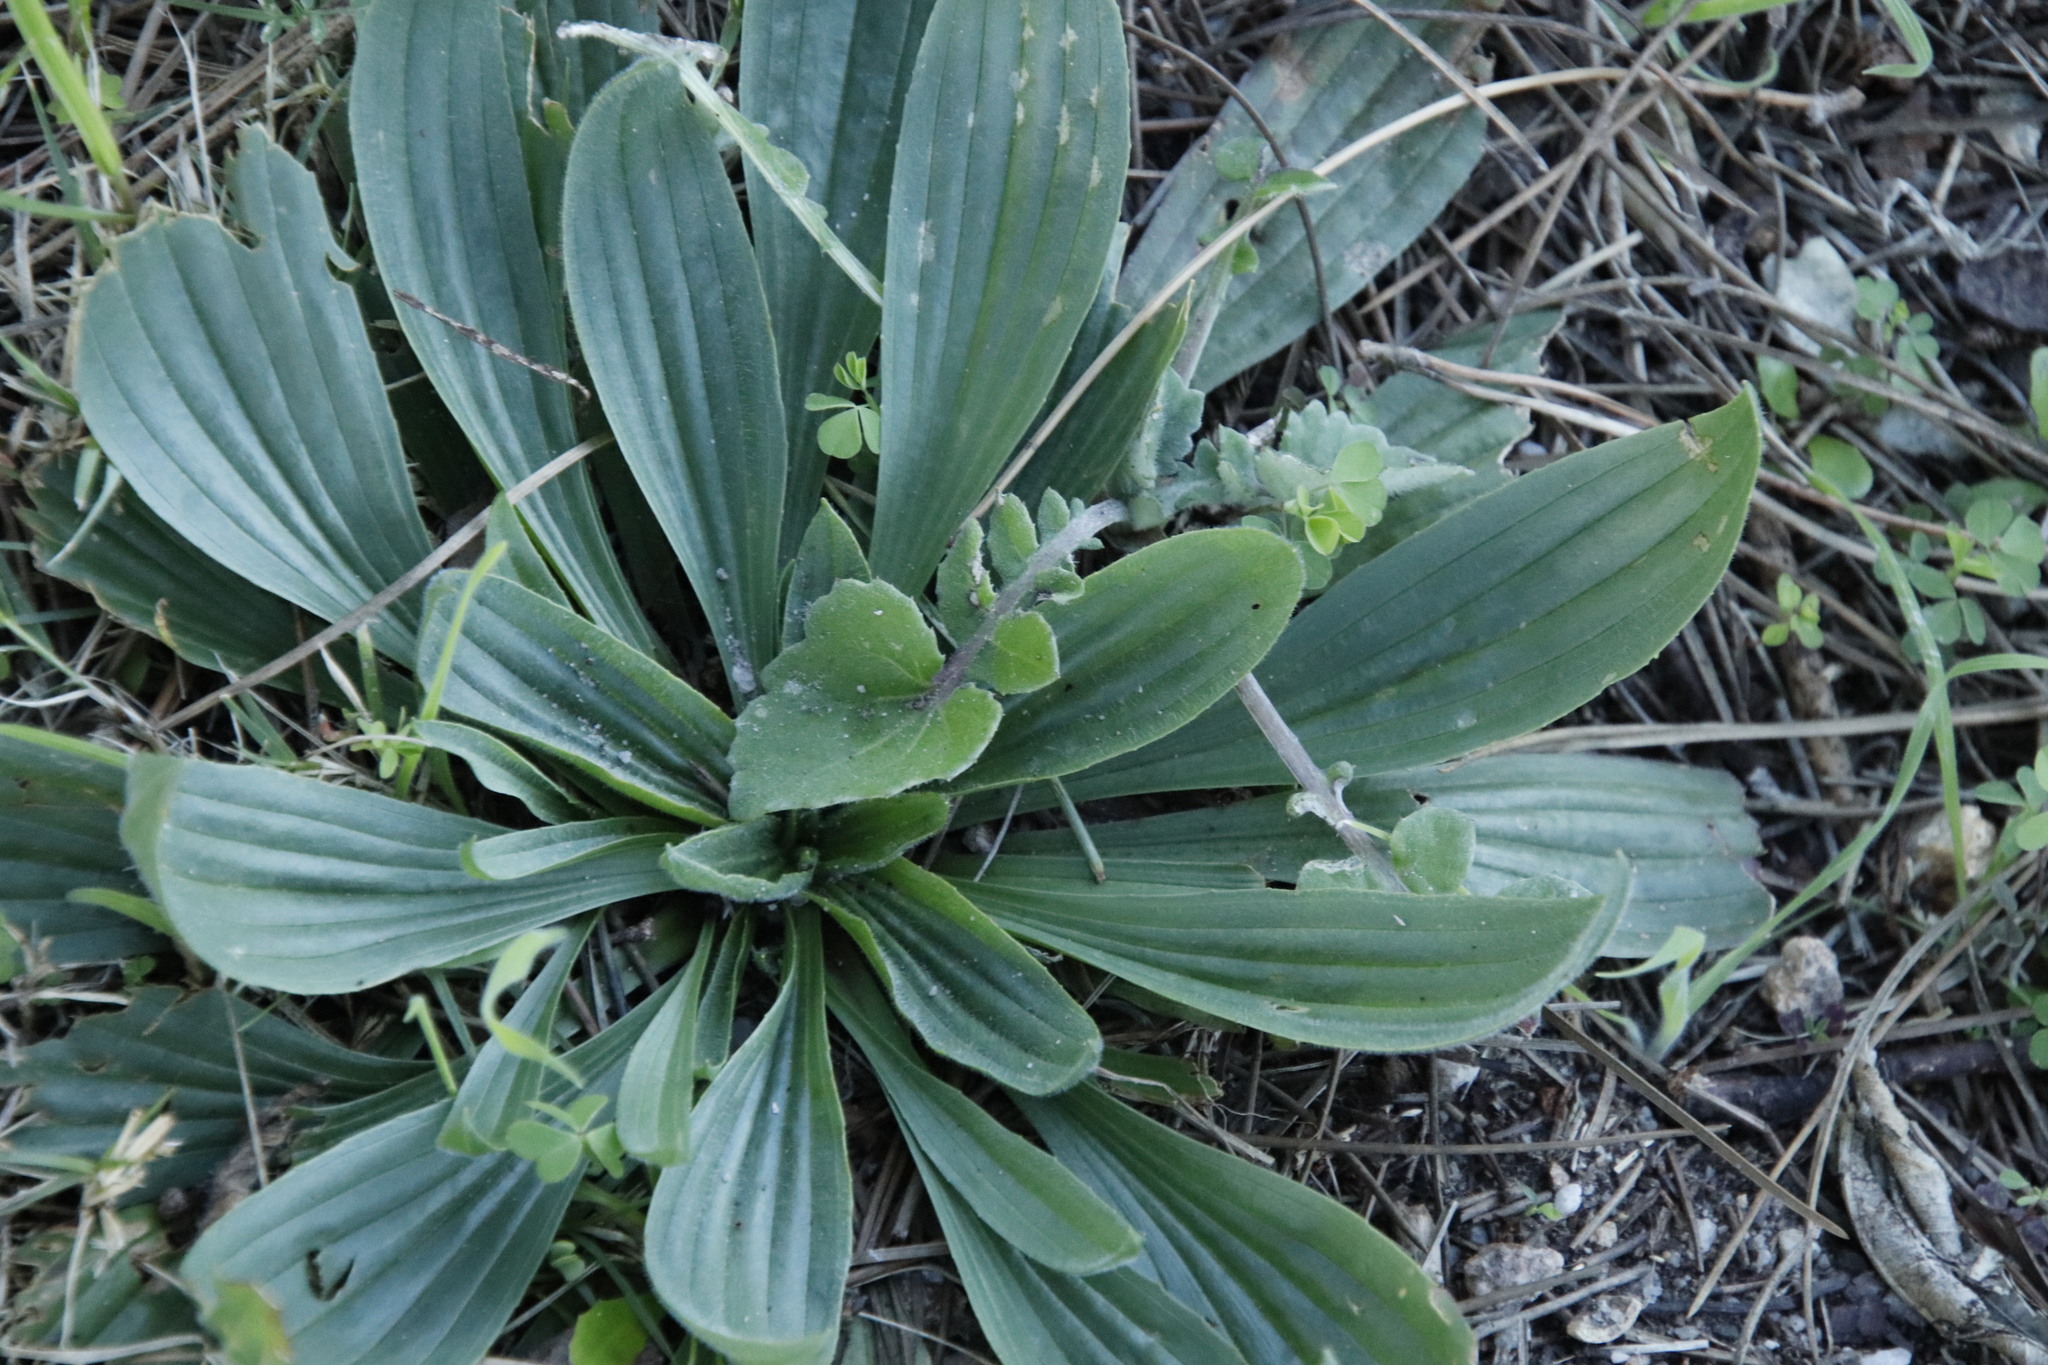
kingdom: Plantae
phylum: Tracheophyta
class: Magnoliopsida
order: Lamiales
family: Plantaginaceae
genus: Plantago
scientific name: Plantago lanceolata
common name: Ribwort plantain
